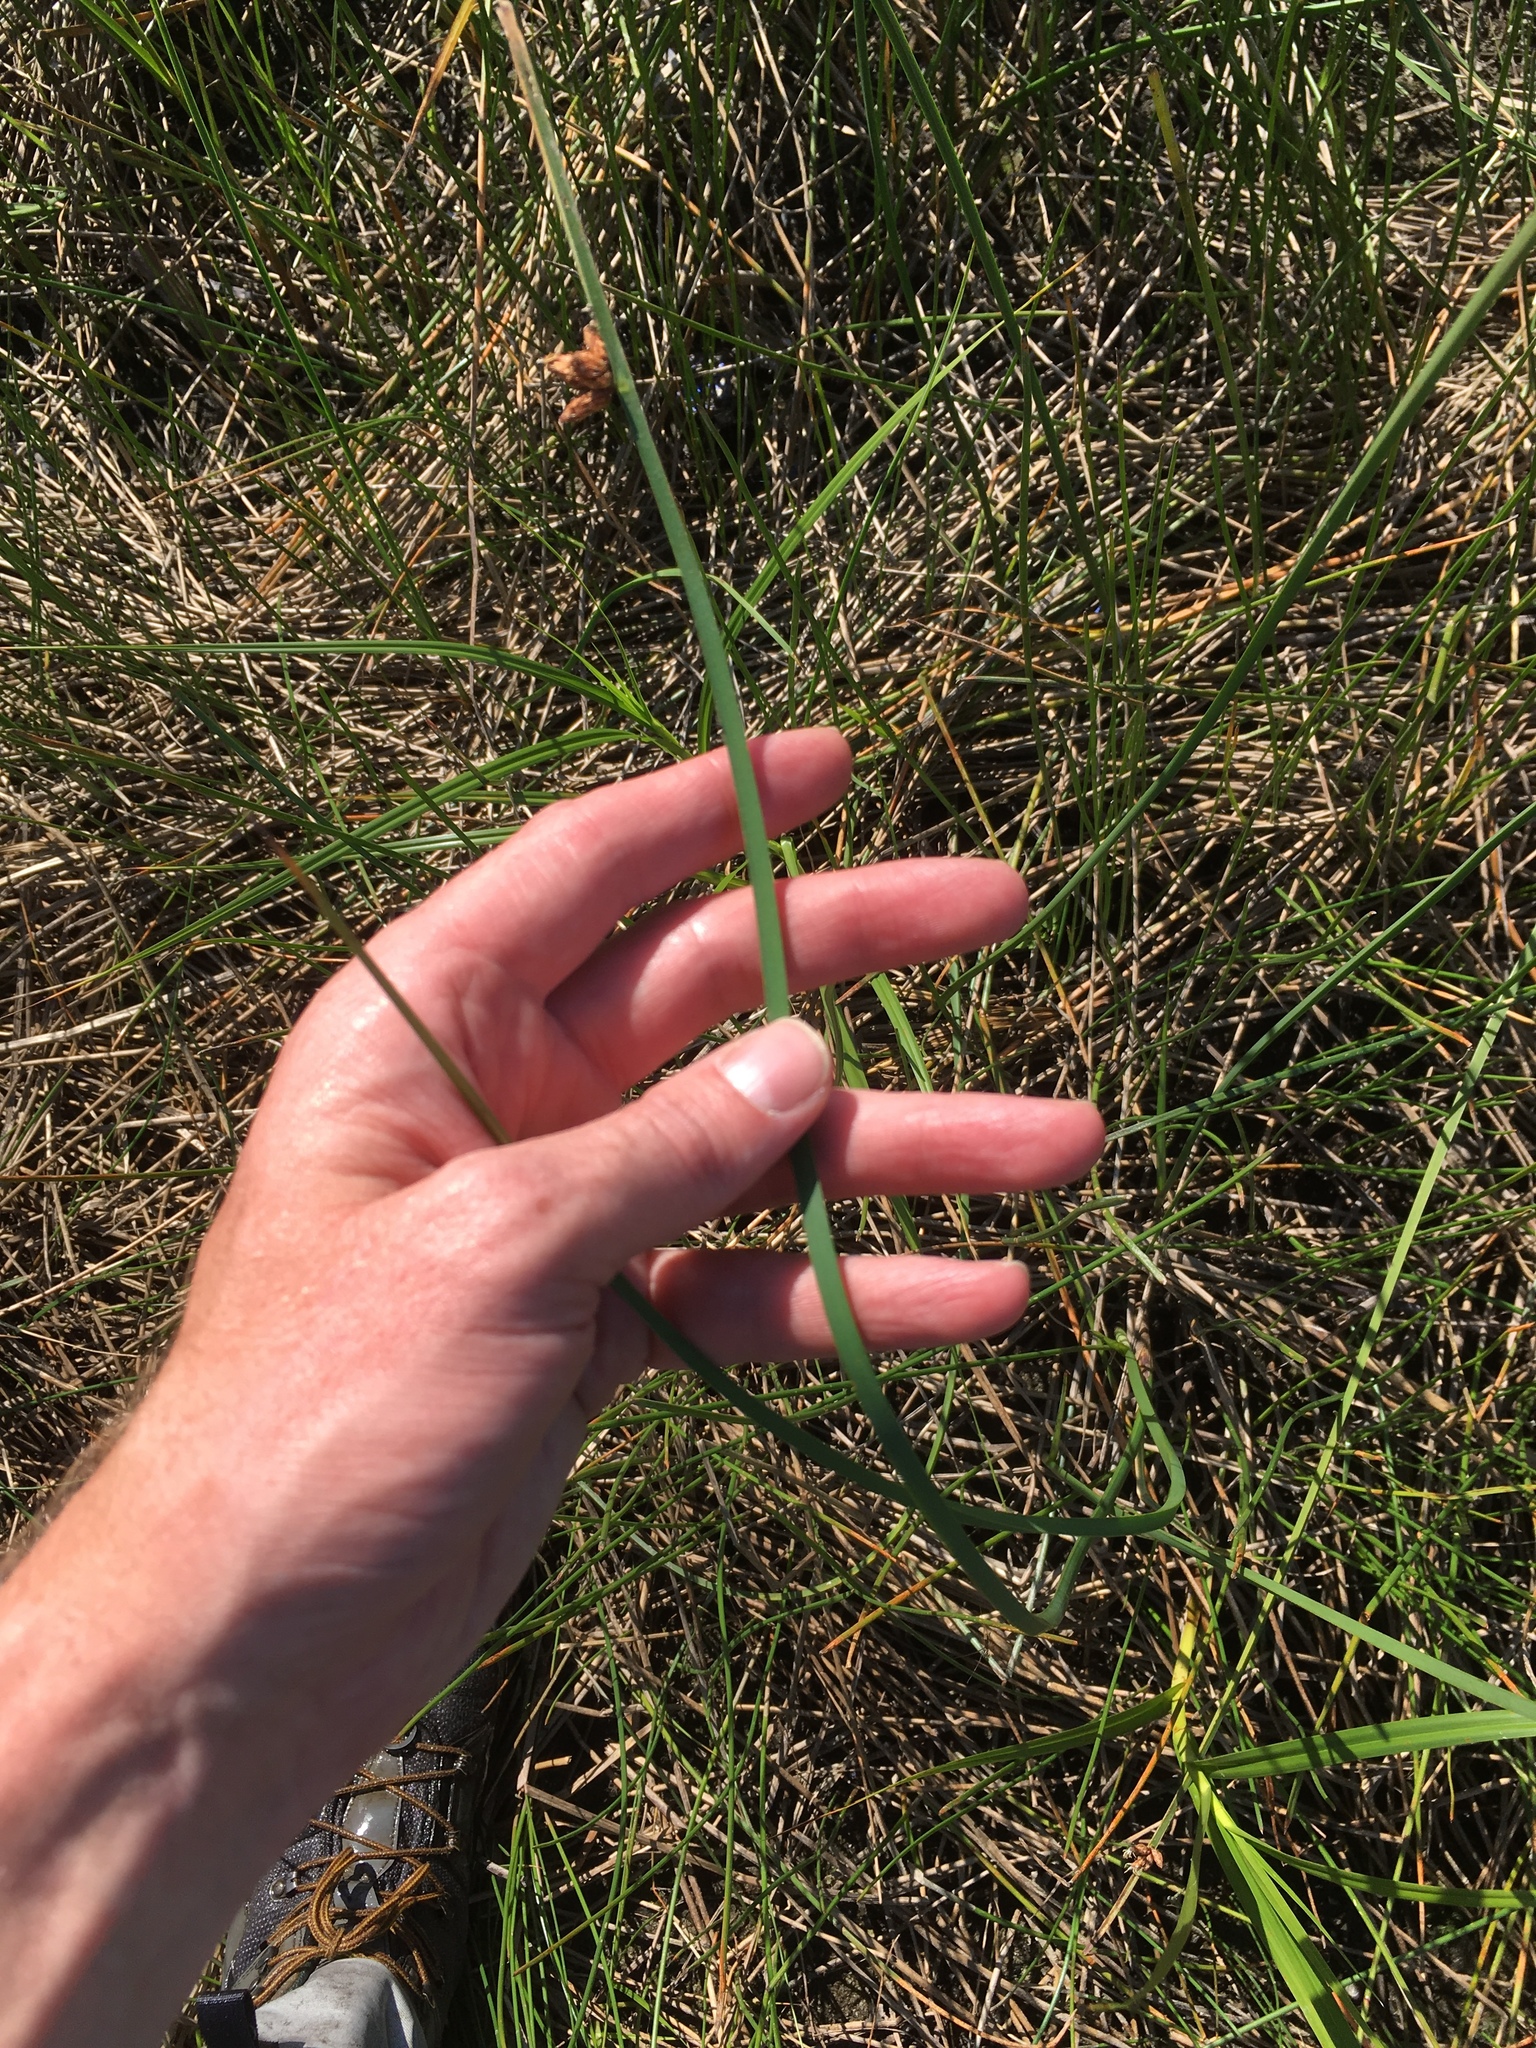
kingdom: Plantae
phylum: Tracheophyta
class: Liliopsida
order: Poales
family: Cyperaceae
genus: Schoenoplectus
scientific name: Schoenoplectus pungens
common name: Sharp club-rush
